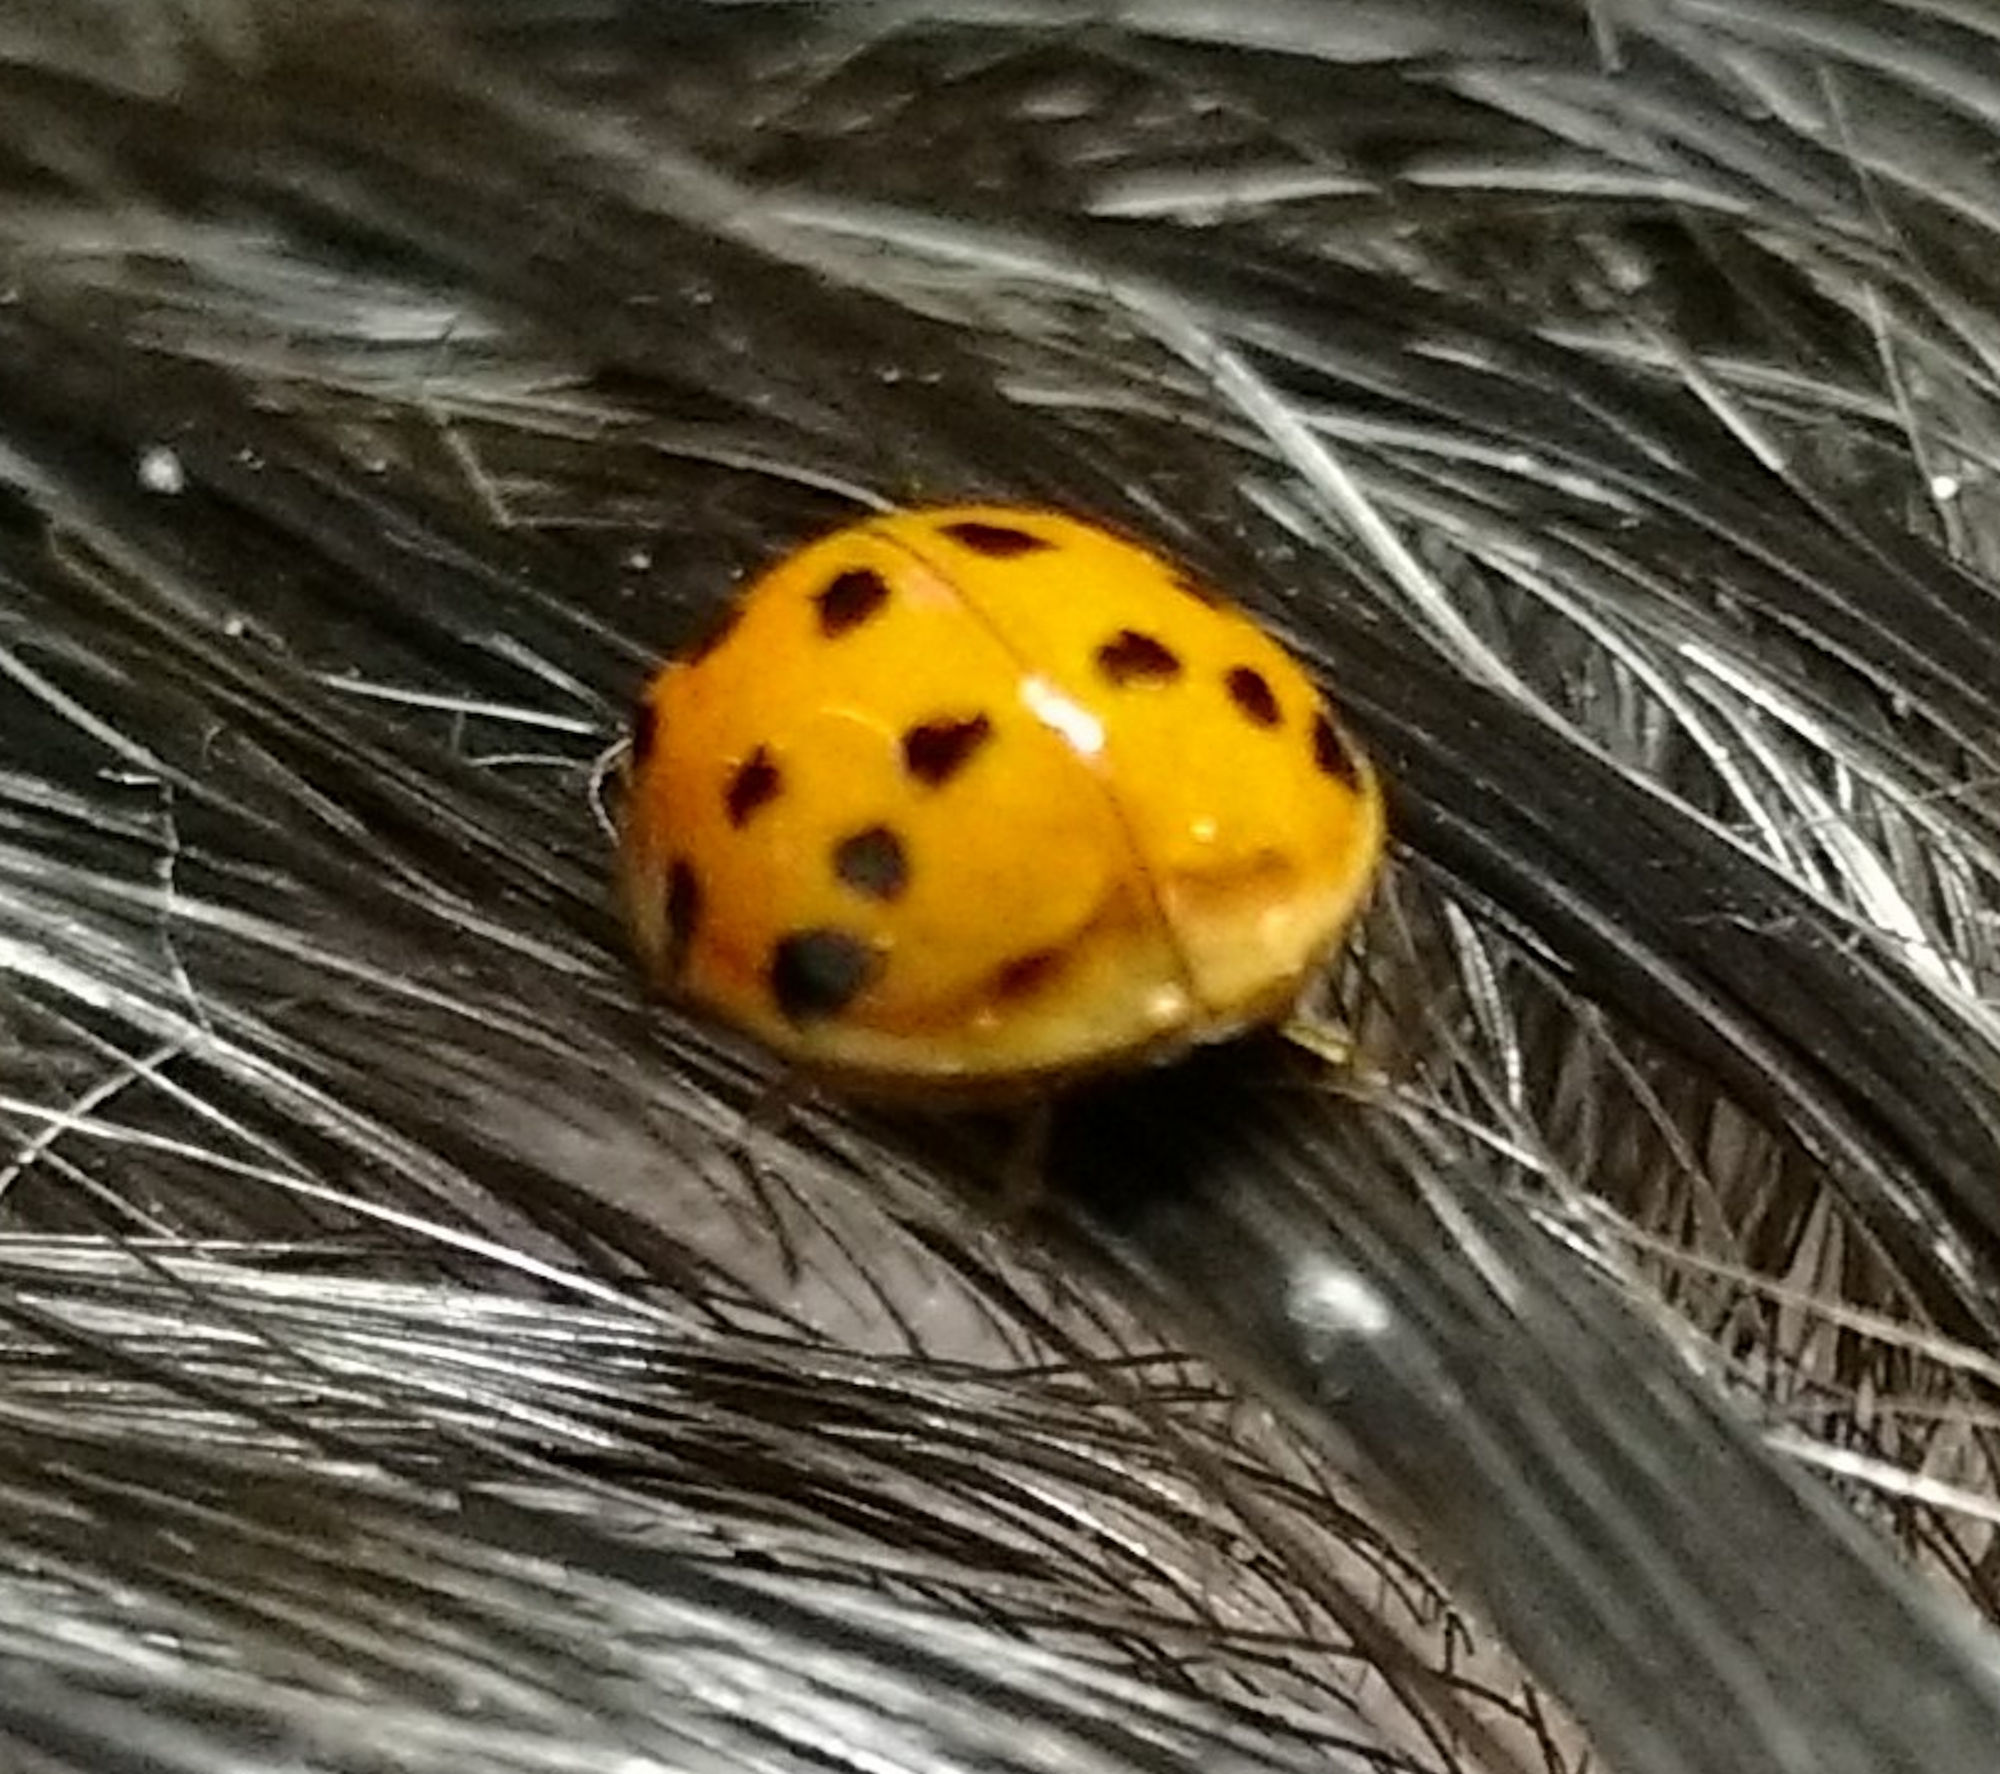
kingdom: Animalia
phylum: Arthropoda
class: Insecta
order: Coleoptera
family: Coccinellidae
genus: Harmonia
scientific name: Harmonia axyridis
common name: Harlequin ladybird
